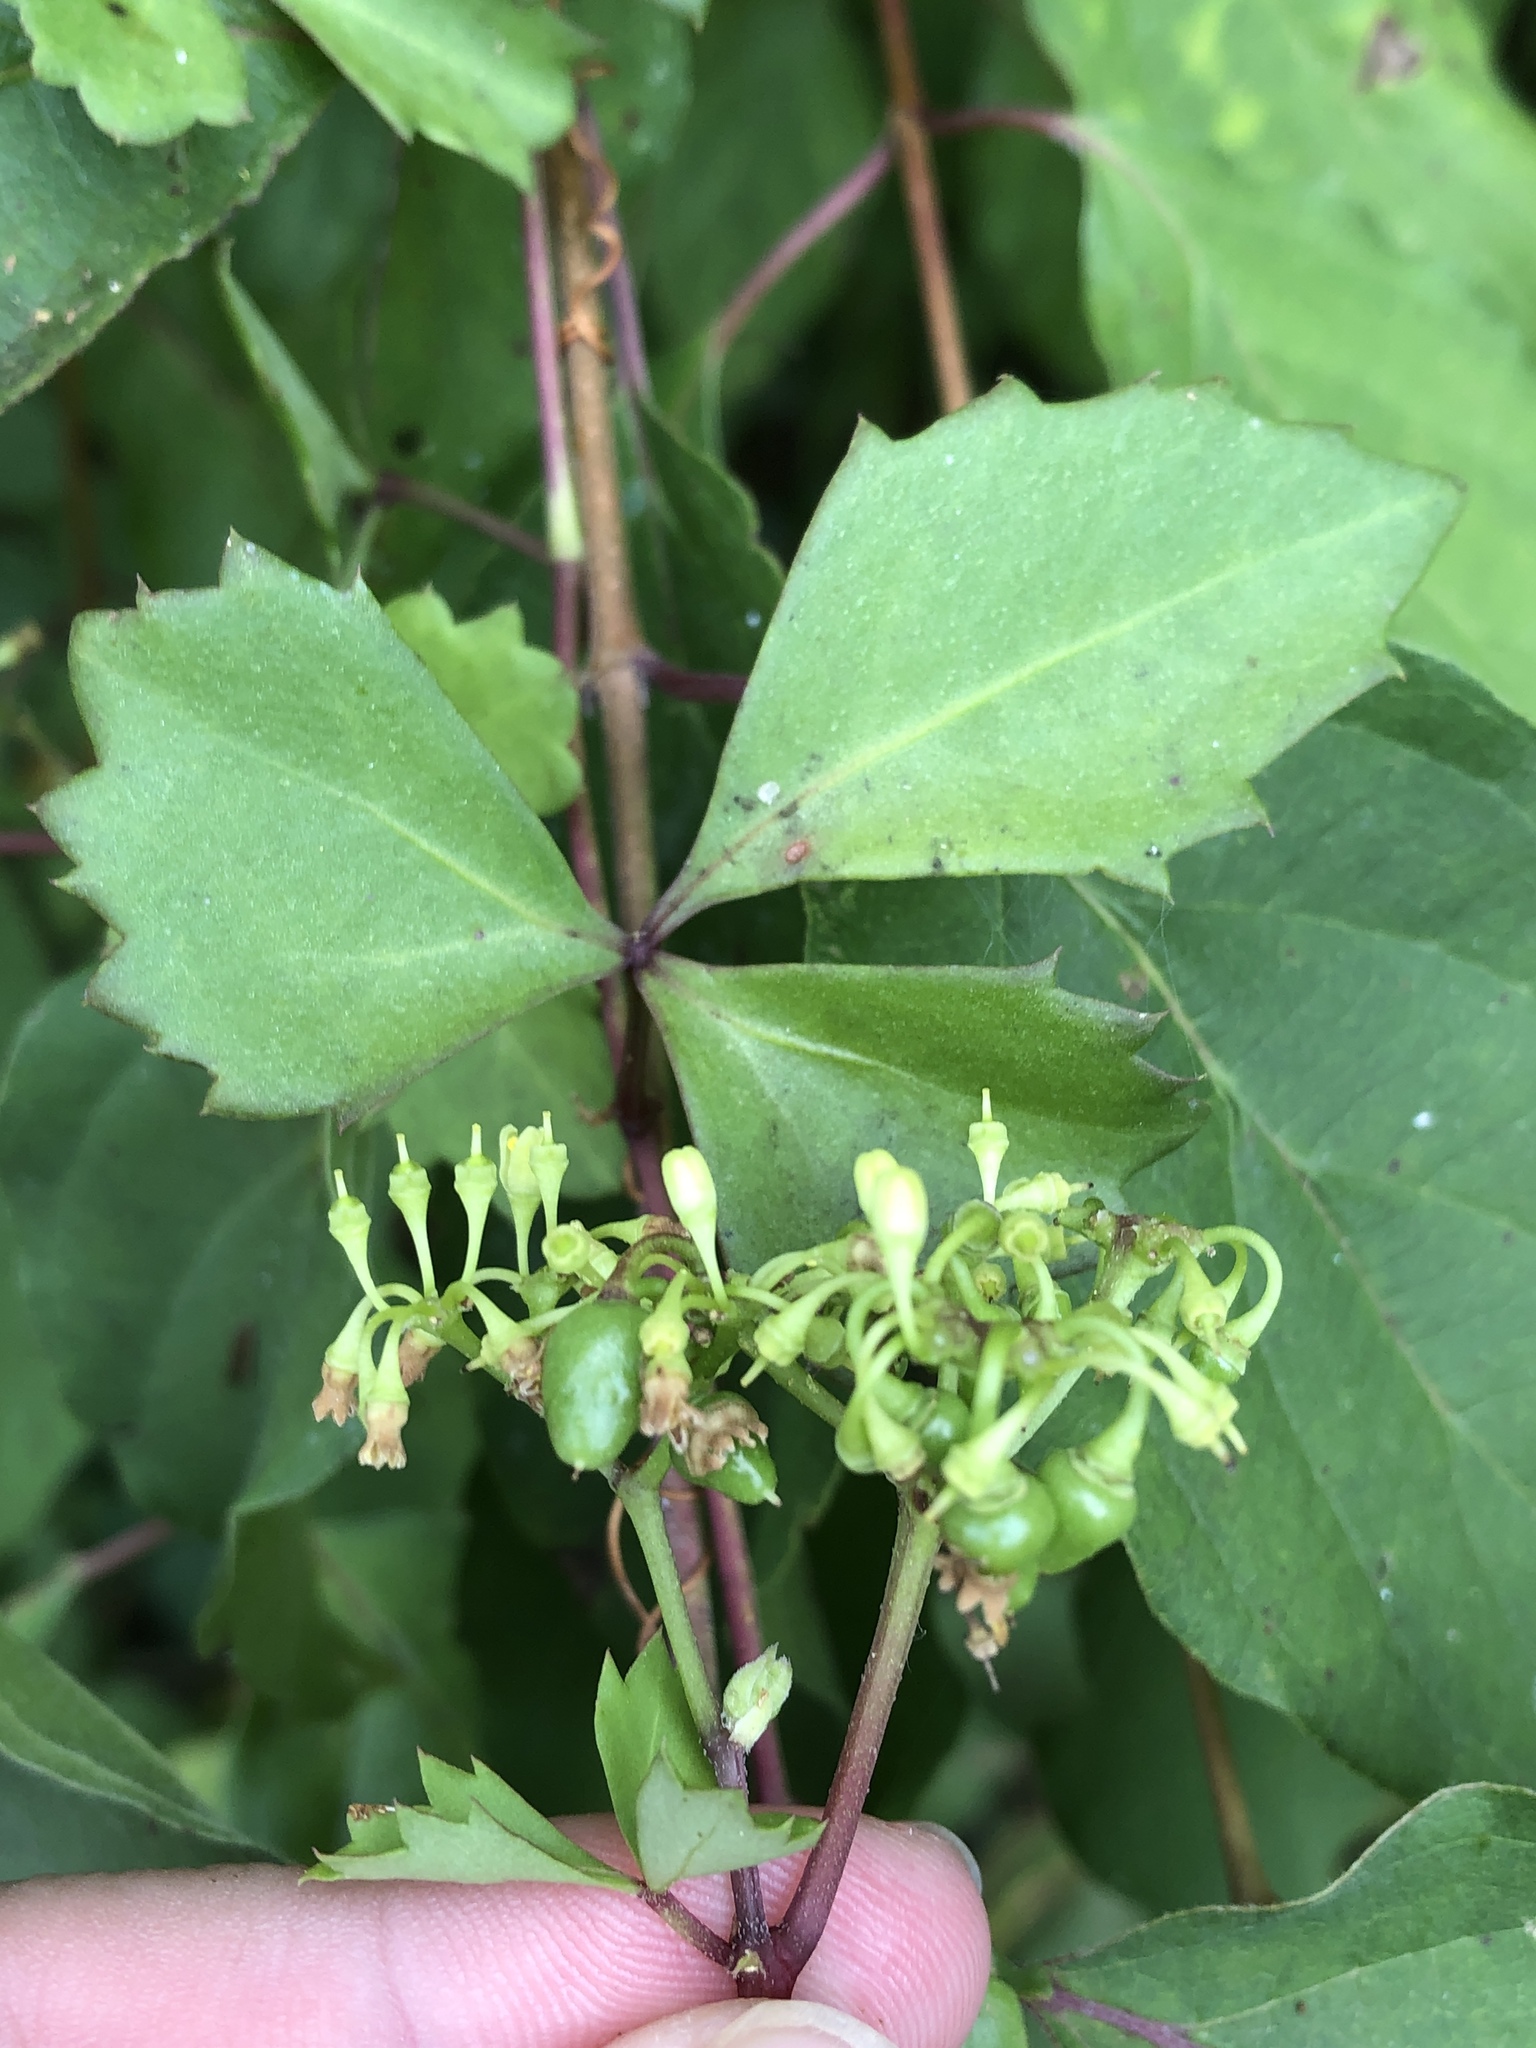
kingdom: Plantae
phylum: Tracheophyta
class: Magnoliopsida
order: Vitales
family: Vitaceae
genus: Cissus
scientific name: Cissus trifoliata
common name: Vine-sorrel
